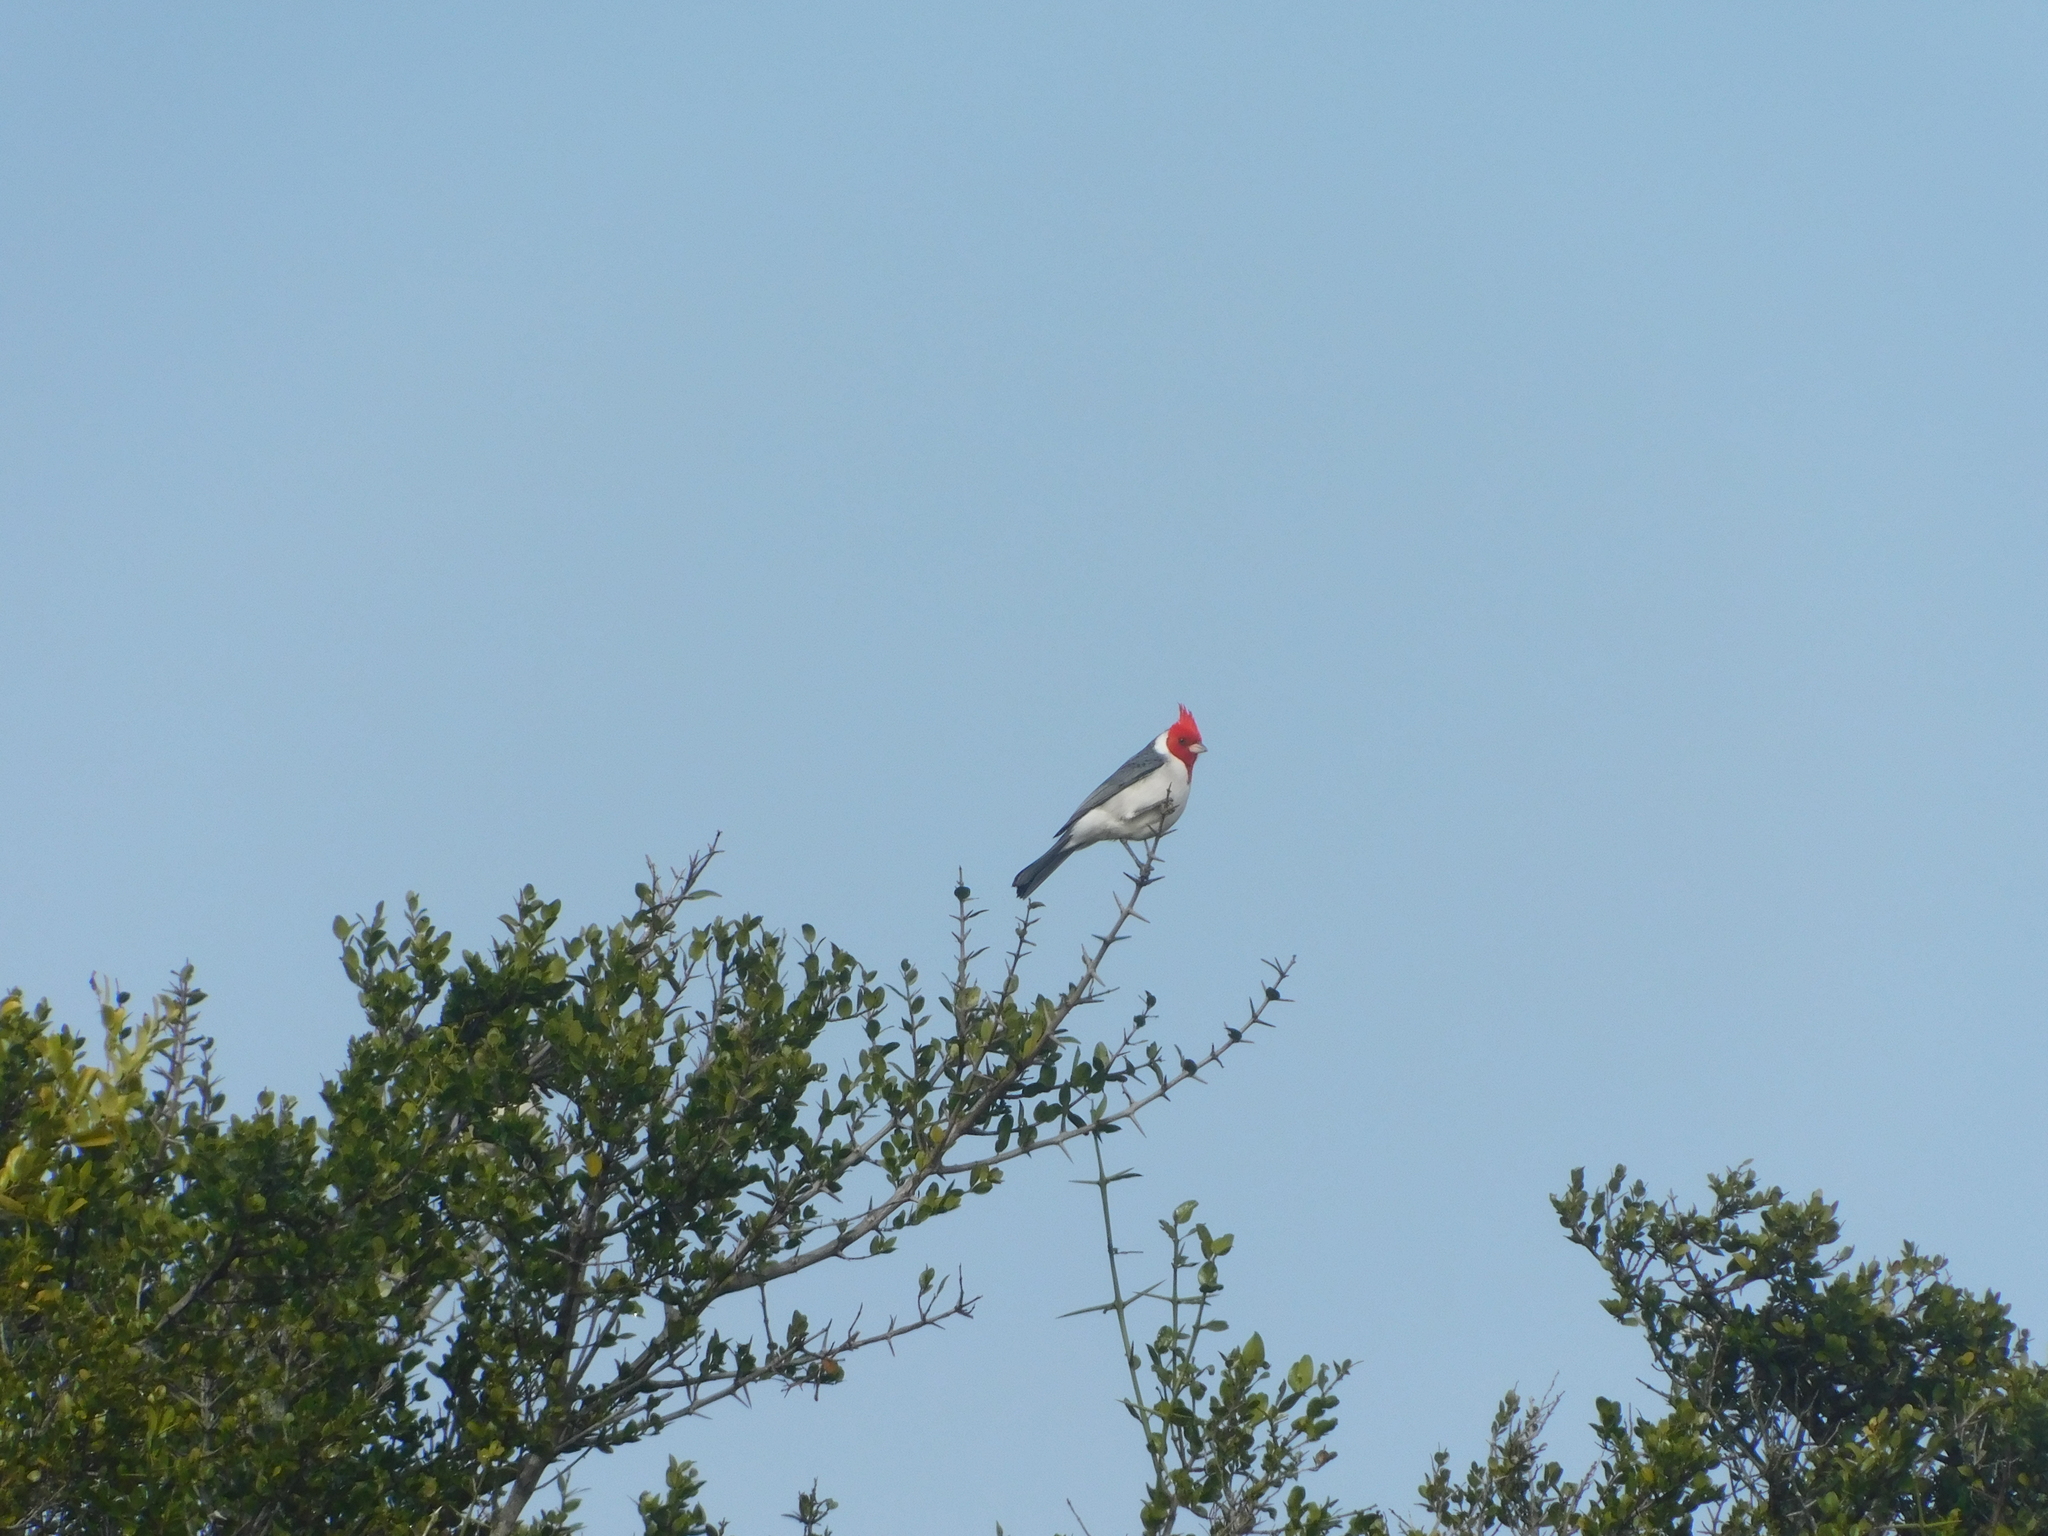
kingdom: Animalia
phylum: Chordata
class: Aves
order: Passeriformes
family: Thraupidae
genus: Paroaria
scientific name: Paroaria coronata
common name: Red-crested cardinal
